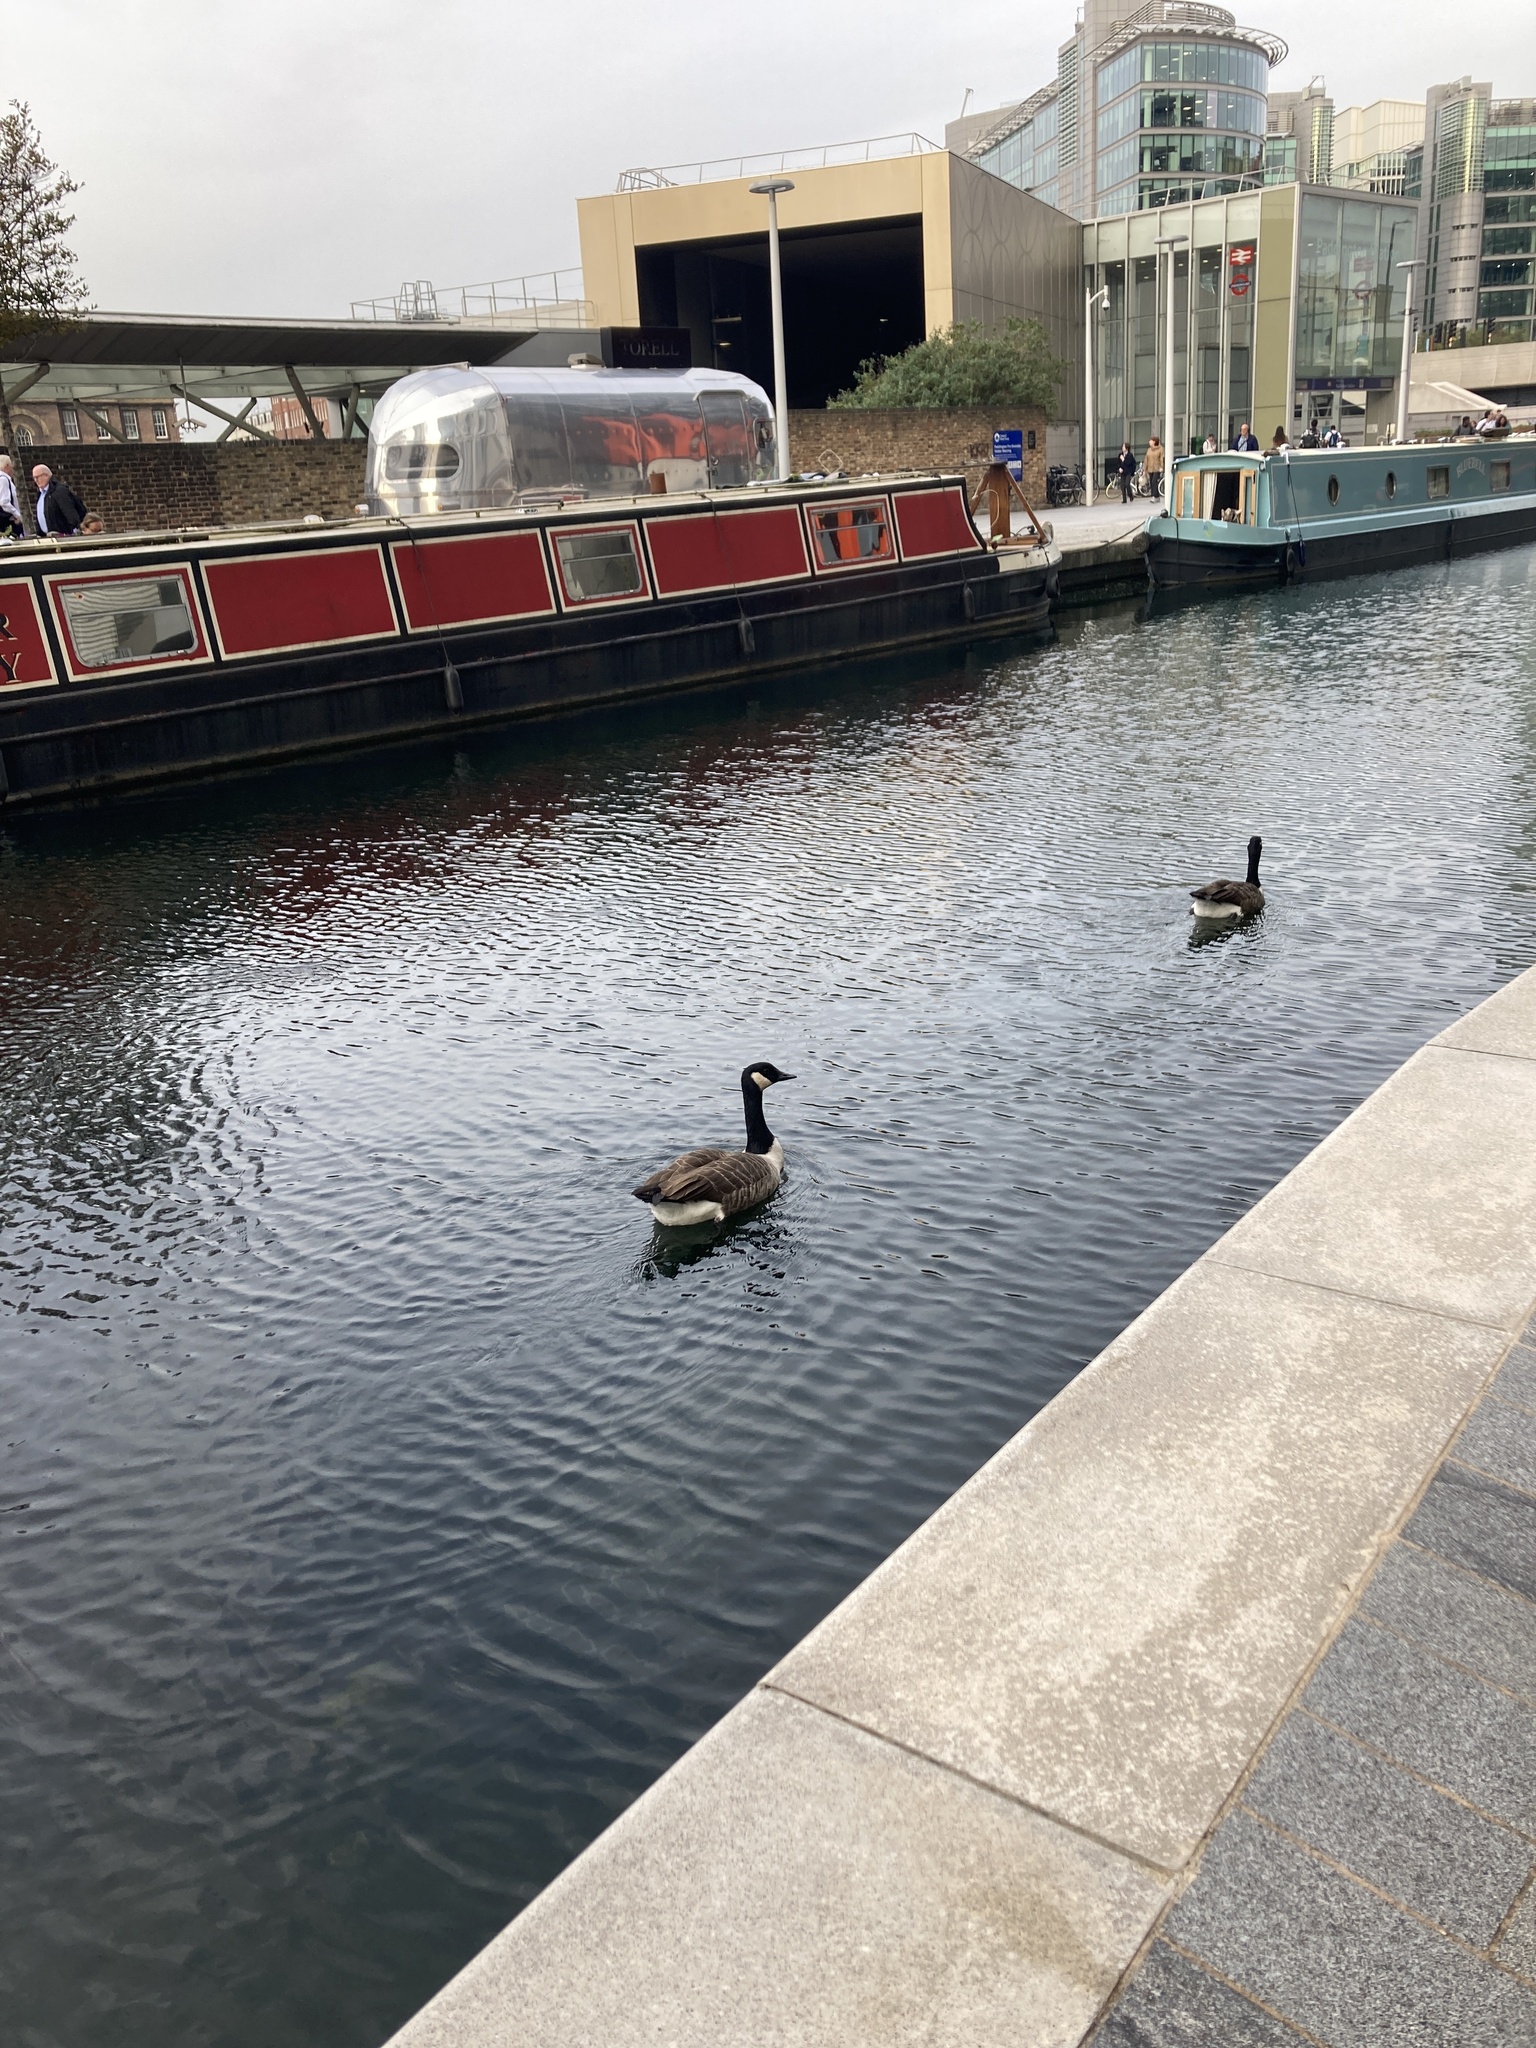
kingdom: Animalia
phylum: Chordata
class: Aves
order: Anseriformes
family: Anatidae
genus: Branta
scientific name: Branta canadensis
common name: Canada goose
